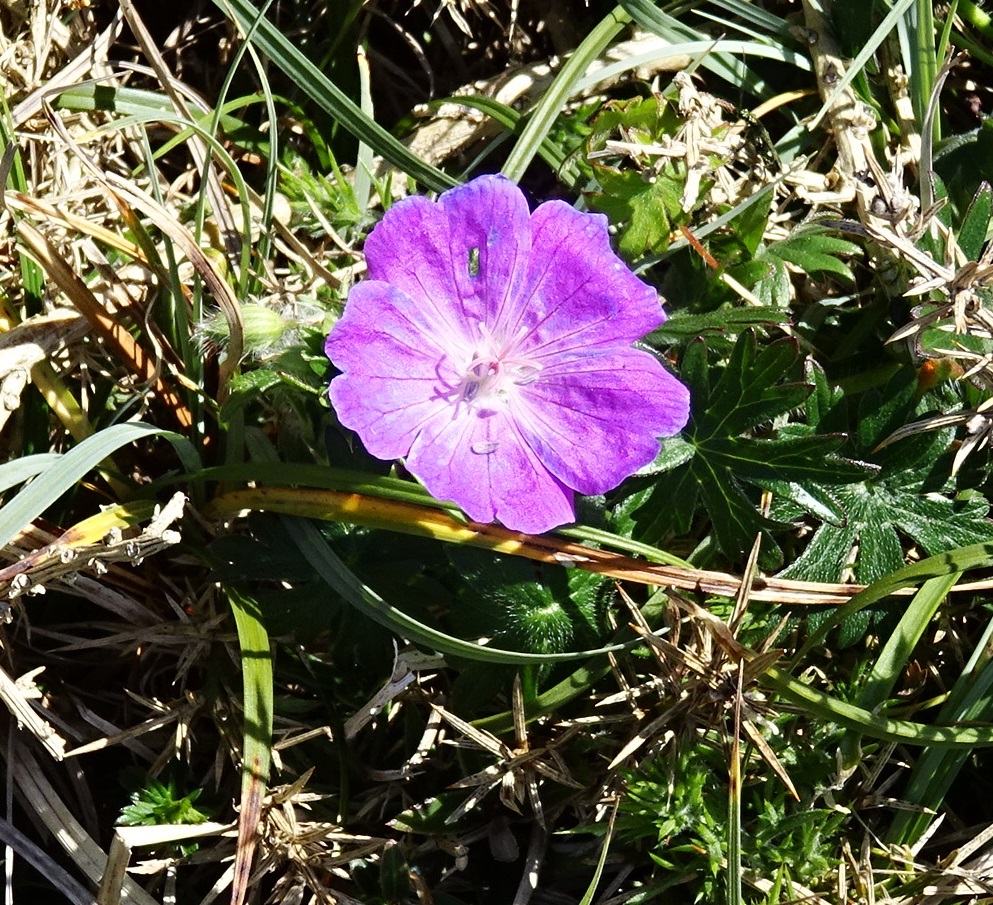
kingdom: Plantae
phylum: Tracheophyta
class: Magnoliopsida
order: Geraniales
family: Geraniaceae
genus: Geranium
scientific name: Geranium sanguineum
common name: Bloody crane's-bill
